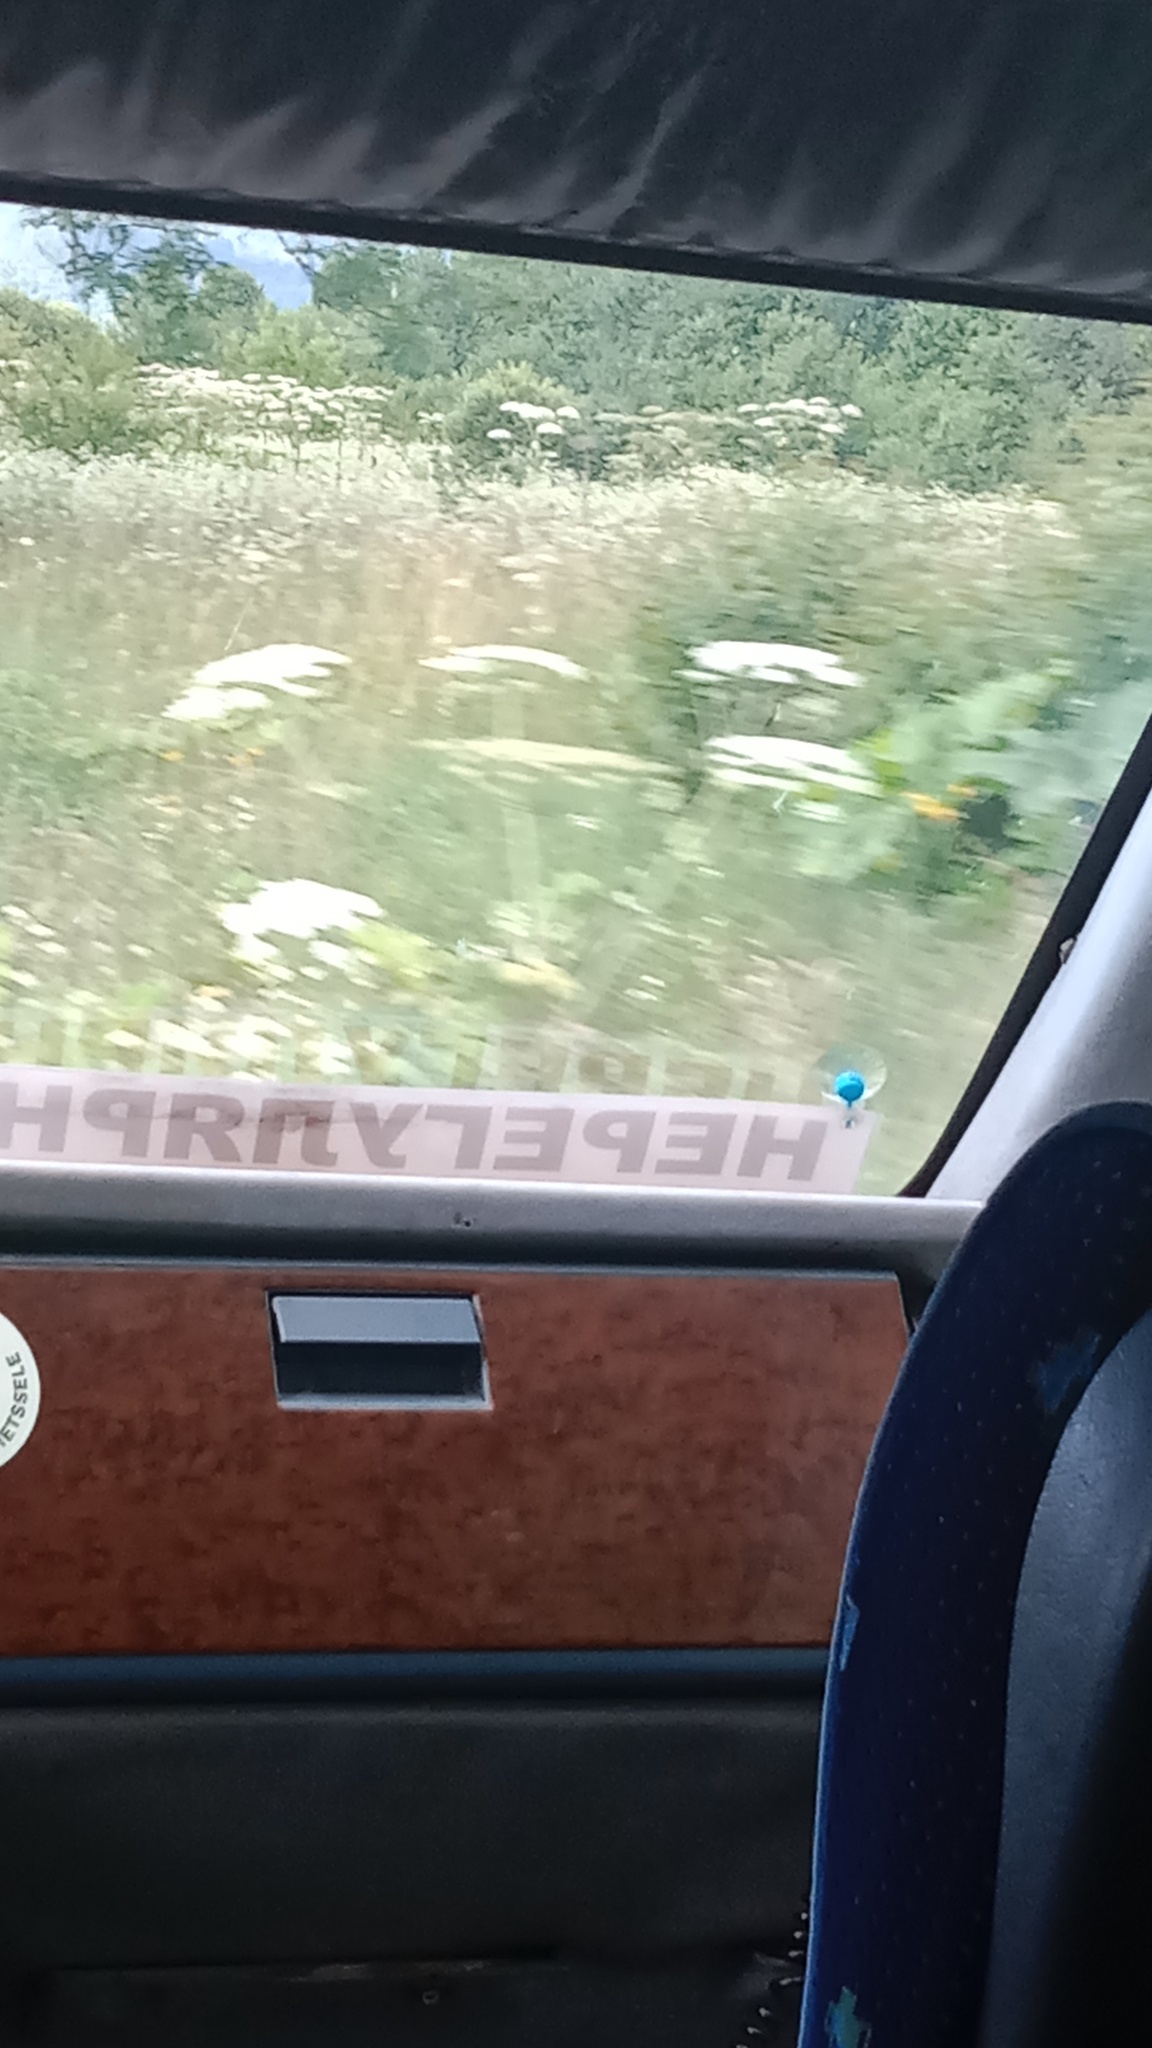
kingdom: Plantae
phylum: Tracheophyta
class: Magnoliopsida
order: Apiales
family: Apiaceae
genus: Heracleum
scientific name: Heracleum sosnowskyi
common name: Sosnowsky's hogweed
